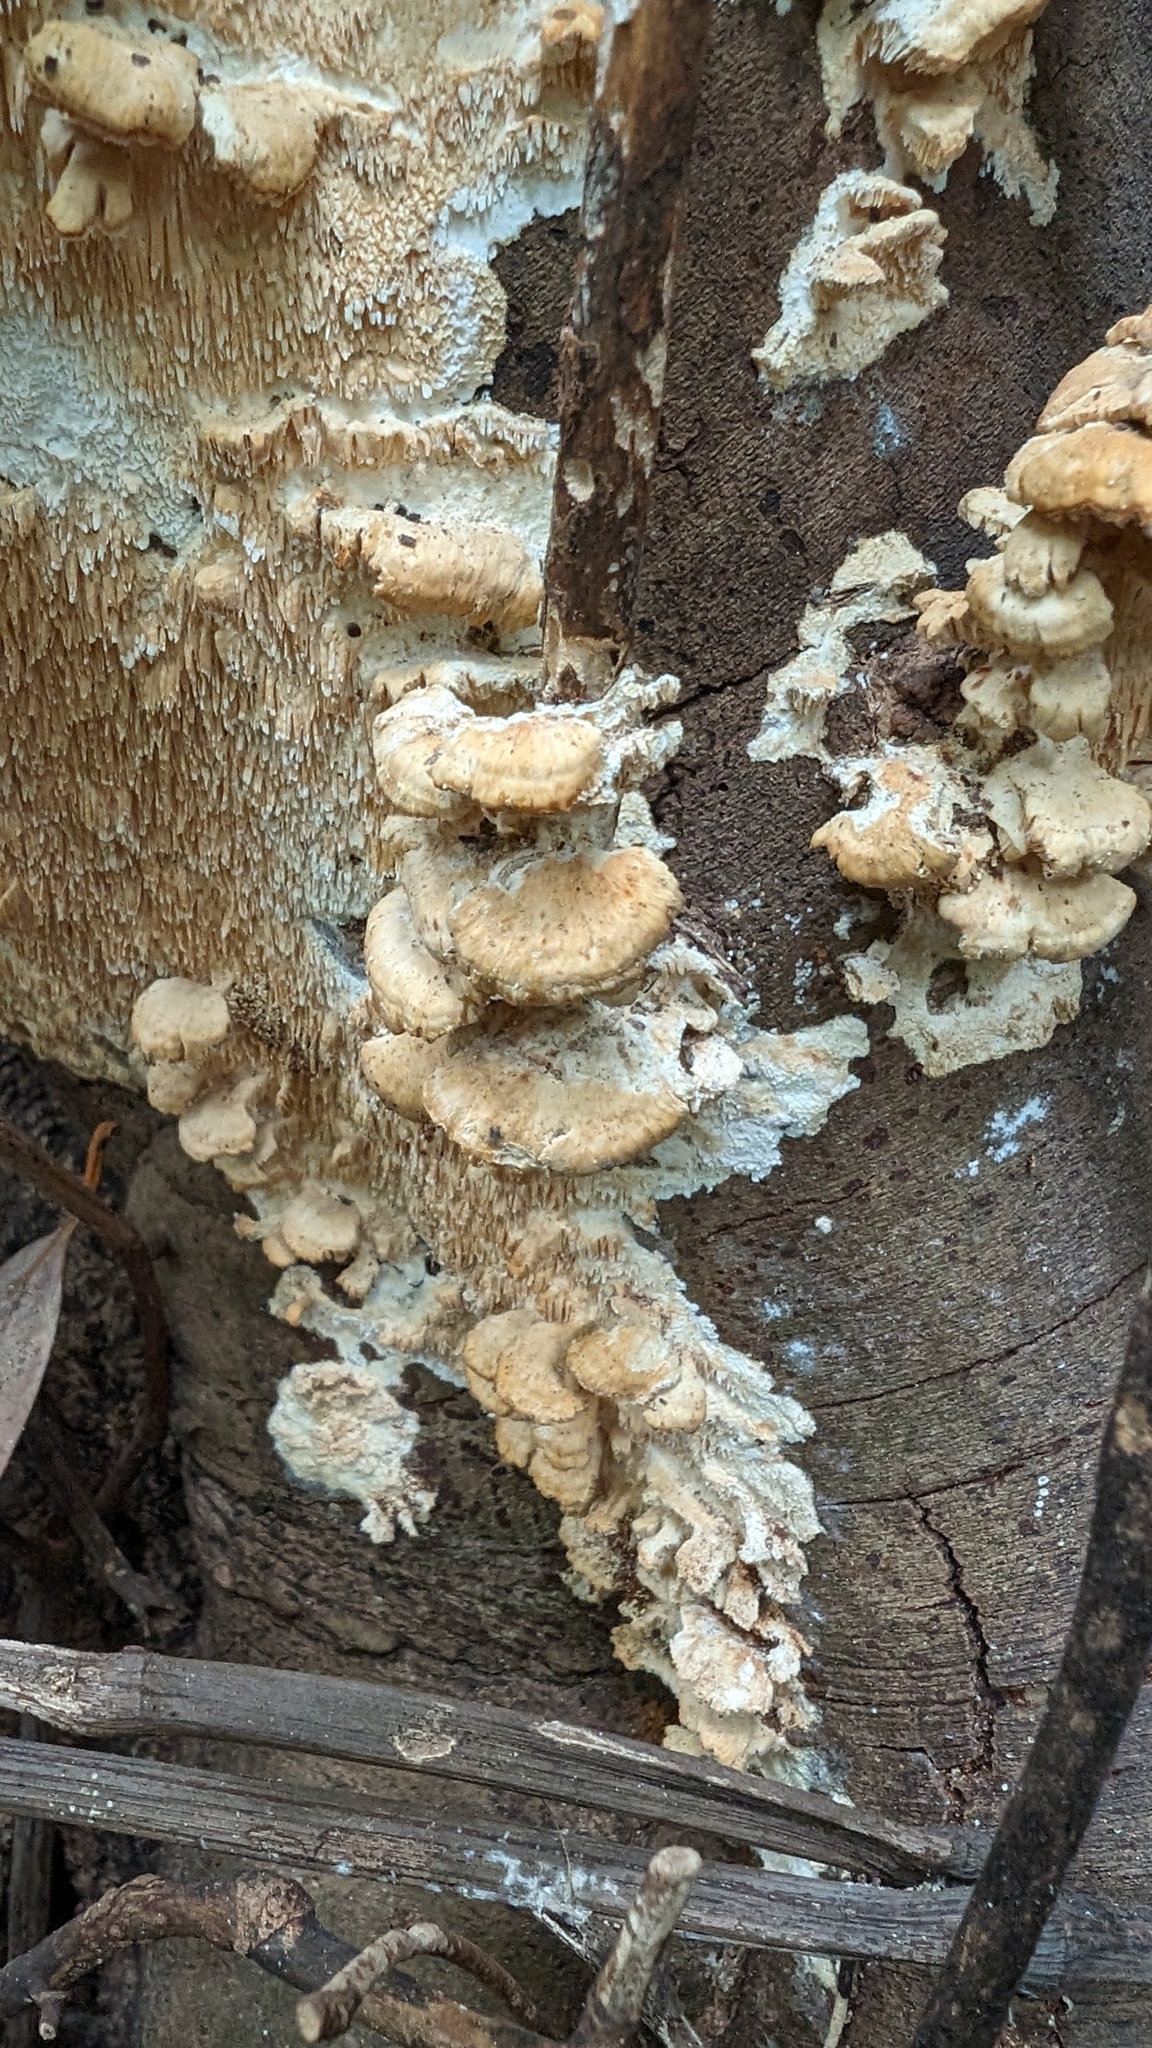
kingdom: Fungi
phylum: Basidiomycota
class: Agaricomycetes
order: Polyporales
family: Irpicaceae
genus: Irpex
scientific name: Irpex consors
